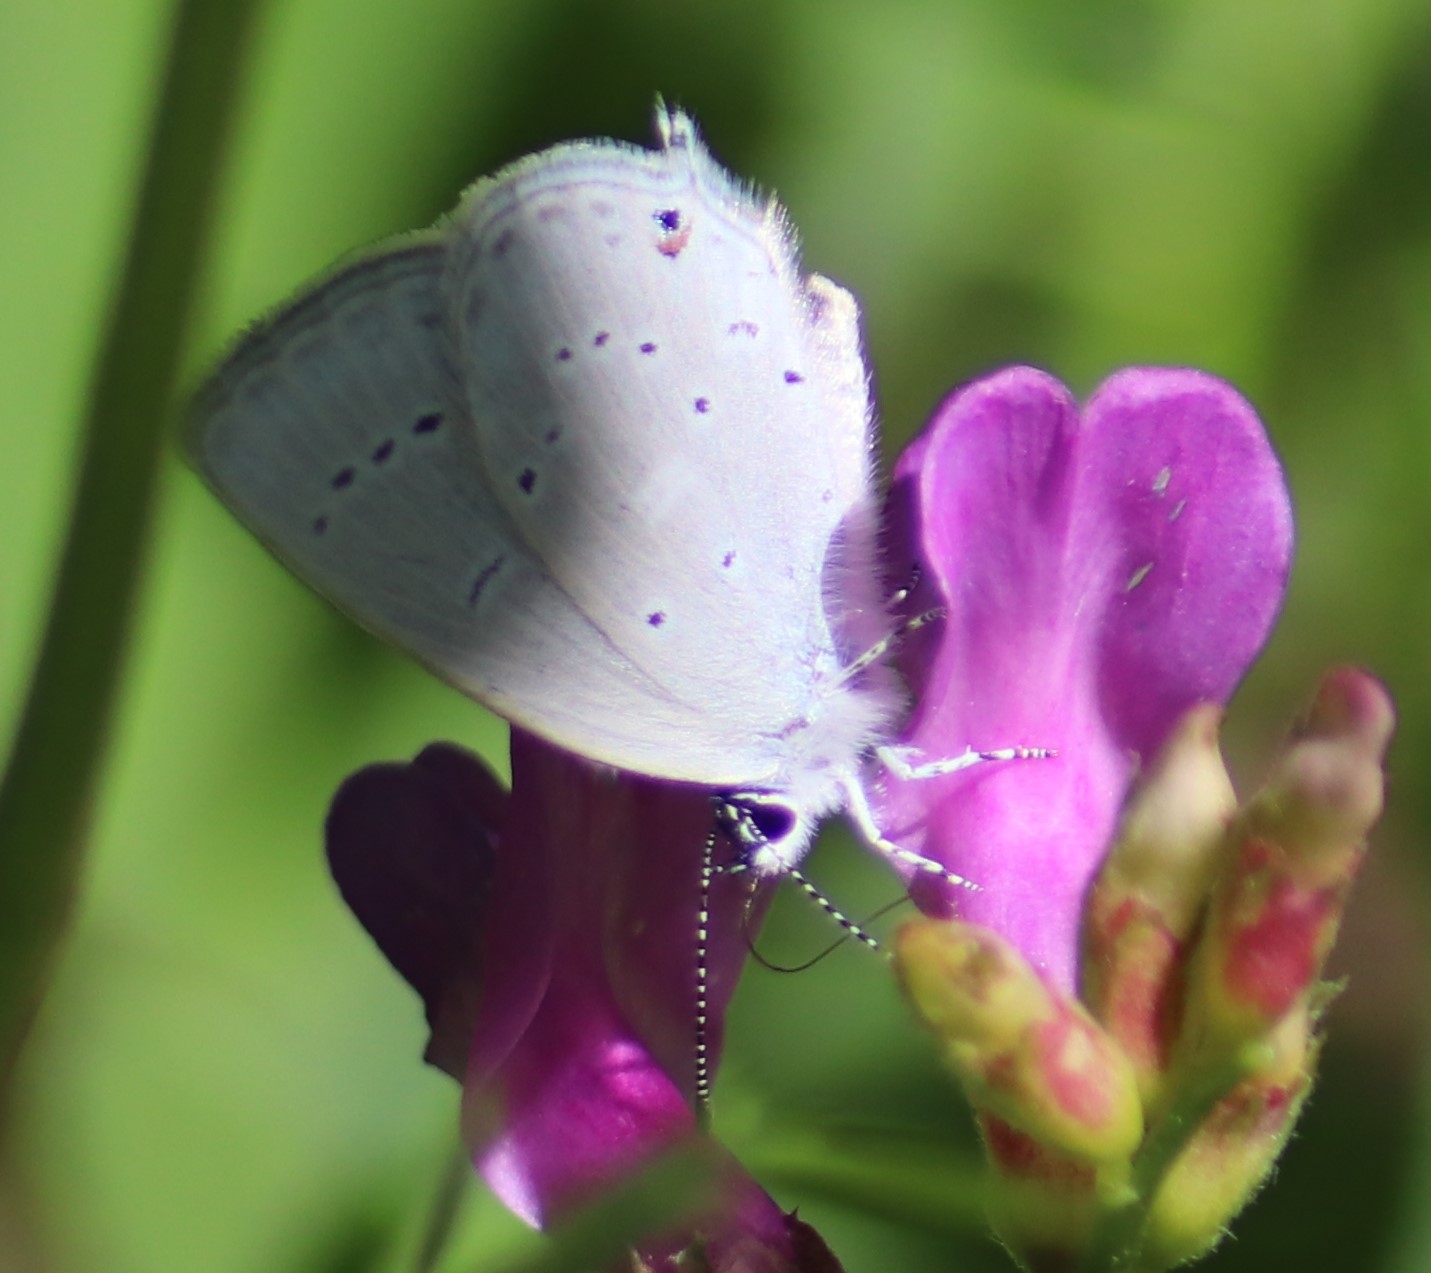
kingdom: Animalia
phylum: Arthropoda
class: Insecta
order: Lepidoptera
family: Lycaenidae
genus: Elkalyce
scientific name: Elkalyce amyntula
